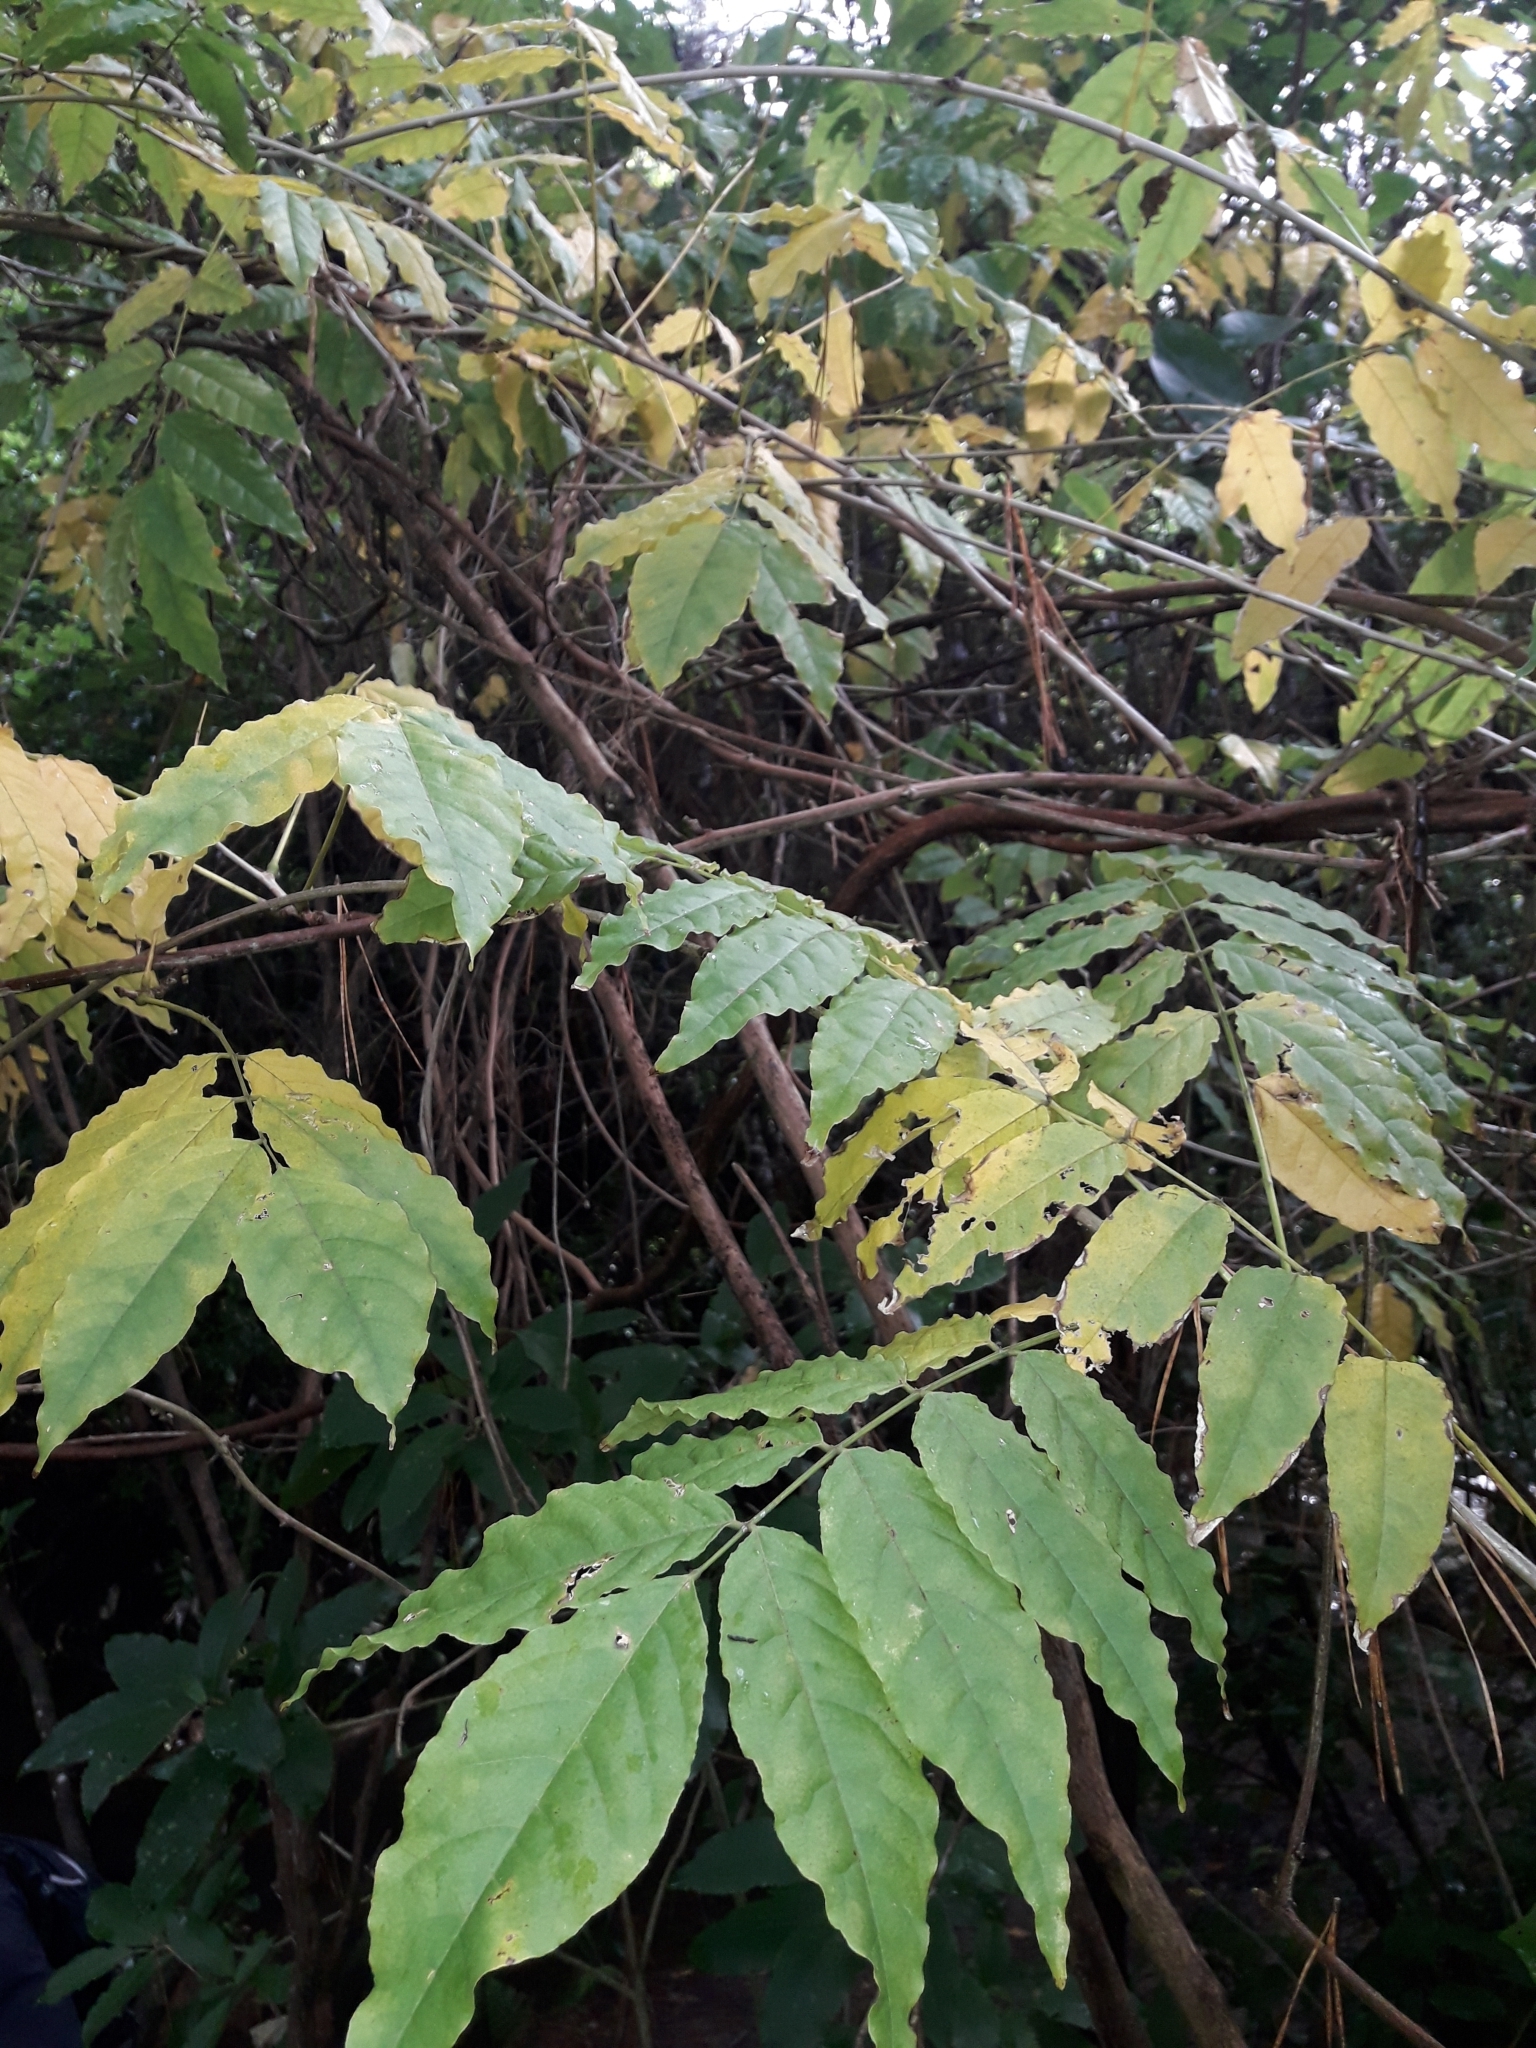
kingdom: Plantae
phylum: Tracheophyta
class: Magnoliopsida
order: Fabales
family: Fabaceae
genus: Wisteria
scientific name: Wisteria sinensis
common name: Chinese wisteria
